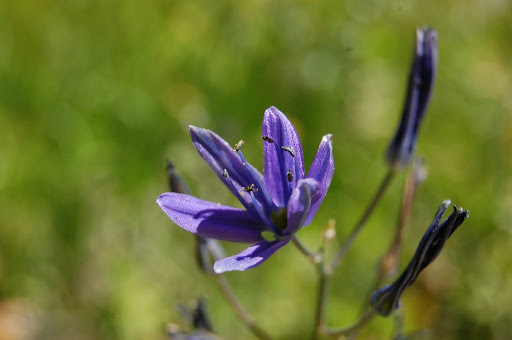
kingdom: Plantae
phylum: Tracheophyta
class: Liliopsida
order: Asparagales
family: Asparagaceae
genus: Camassia
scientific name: Camassia quamash
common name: Common camas
